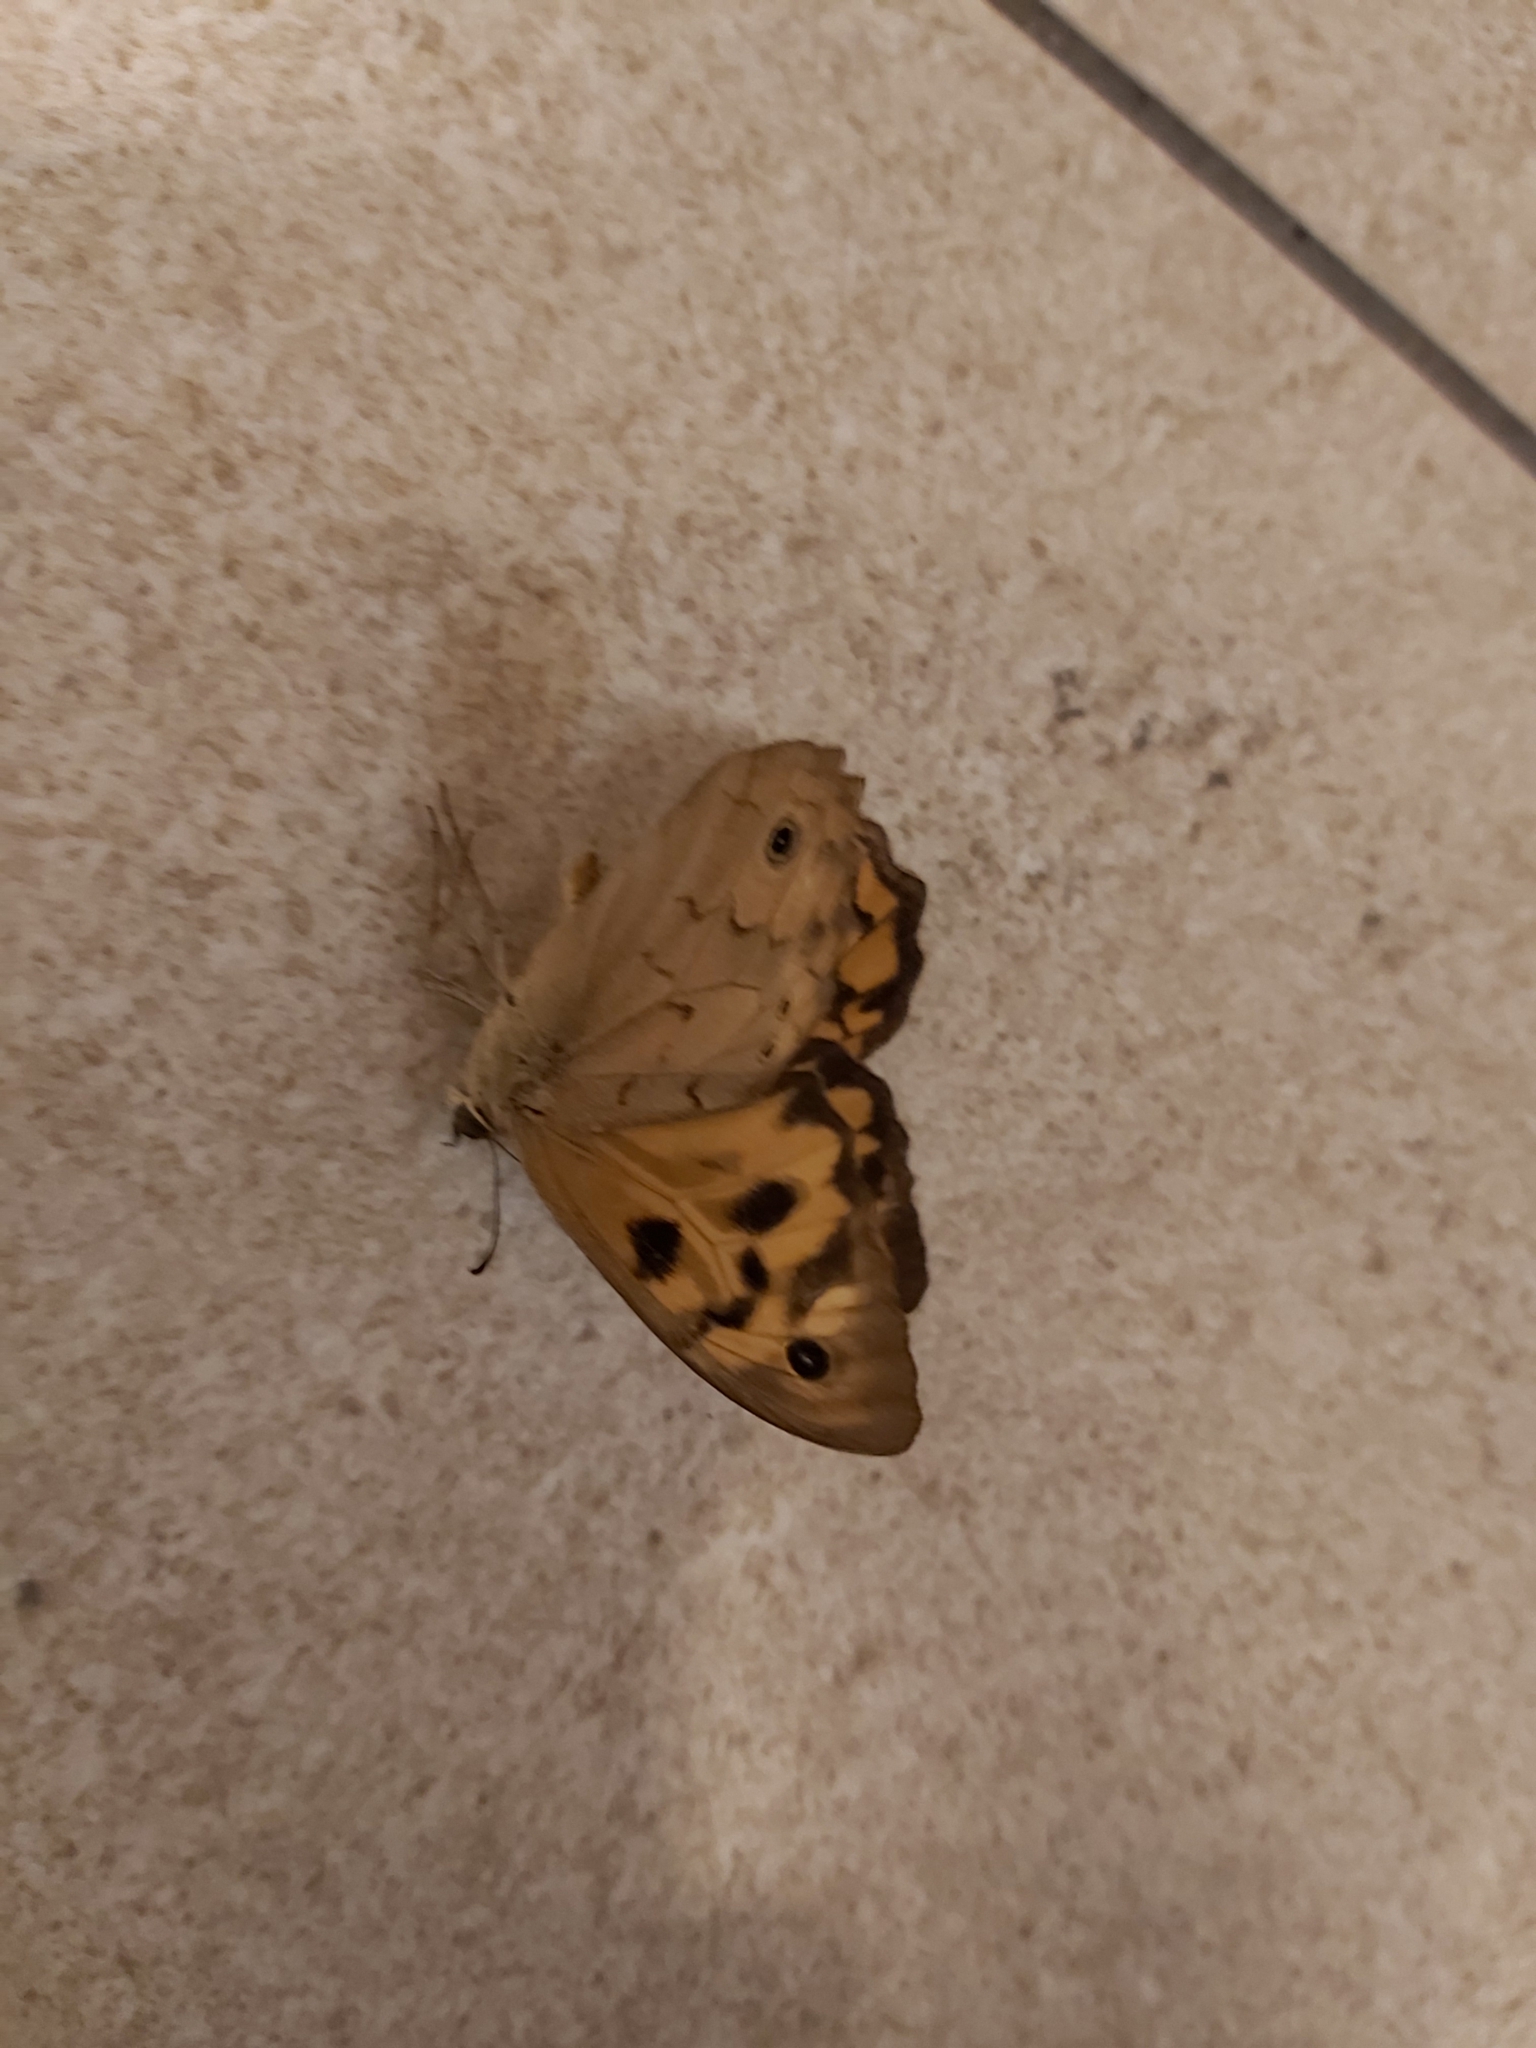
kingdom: Animalia
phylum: Arthropoda
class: Insecta
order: Lepidoptera
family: Nymphalidae
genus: Heteronympha
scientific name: Heteronympha merope
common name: Common brown
